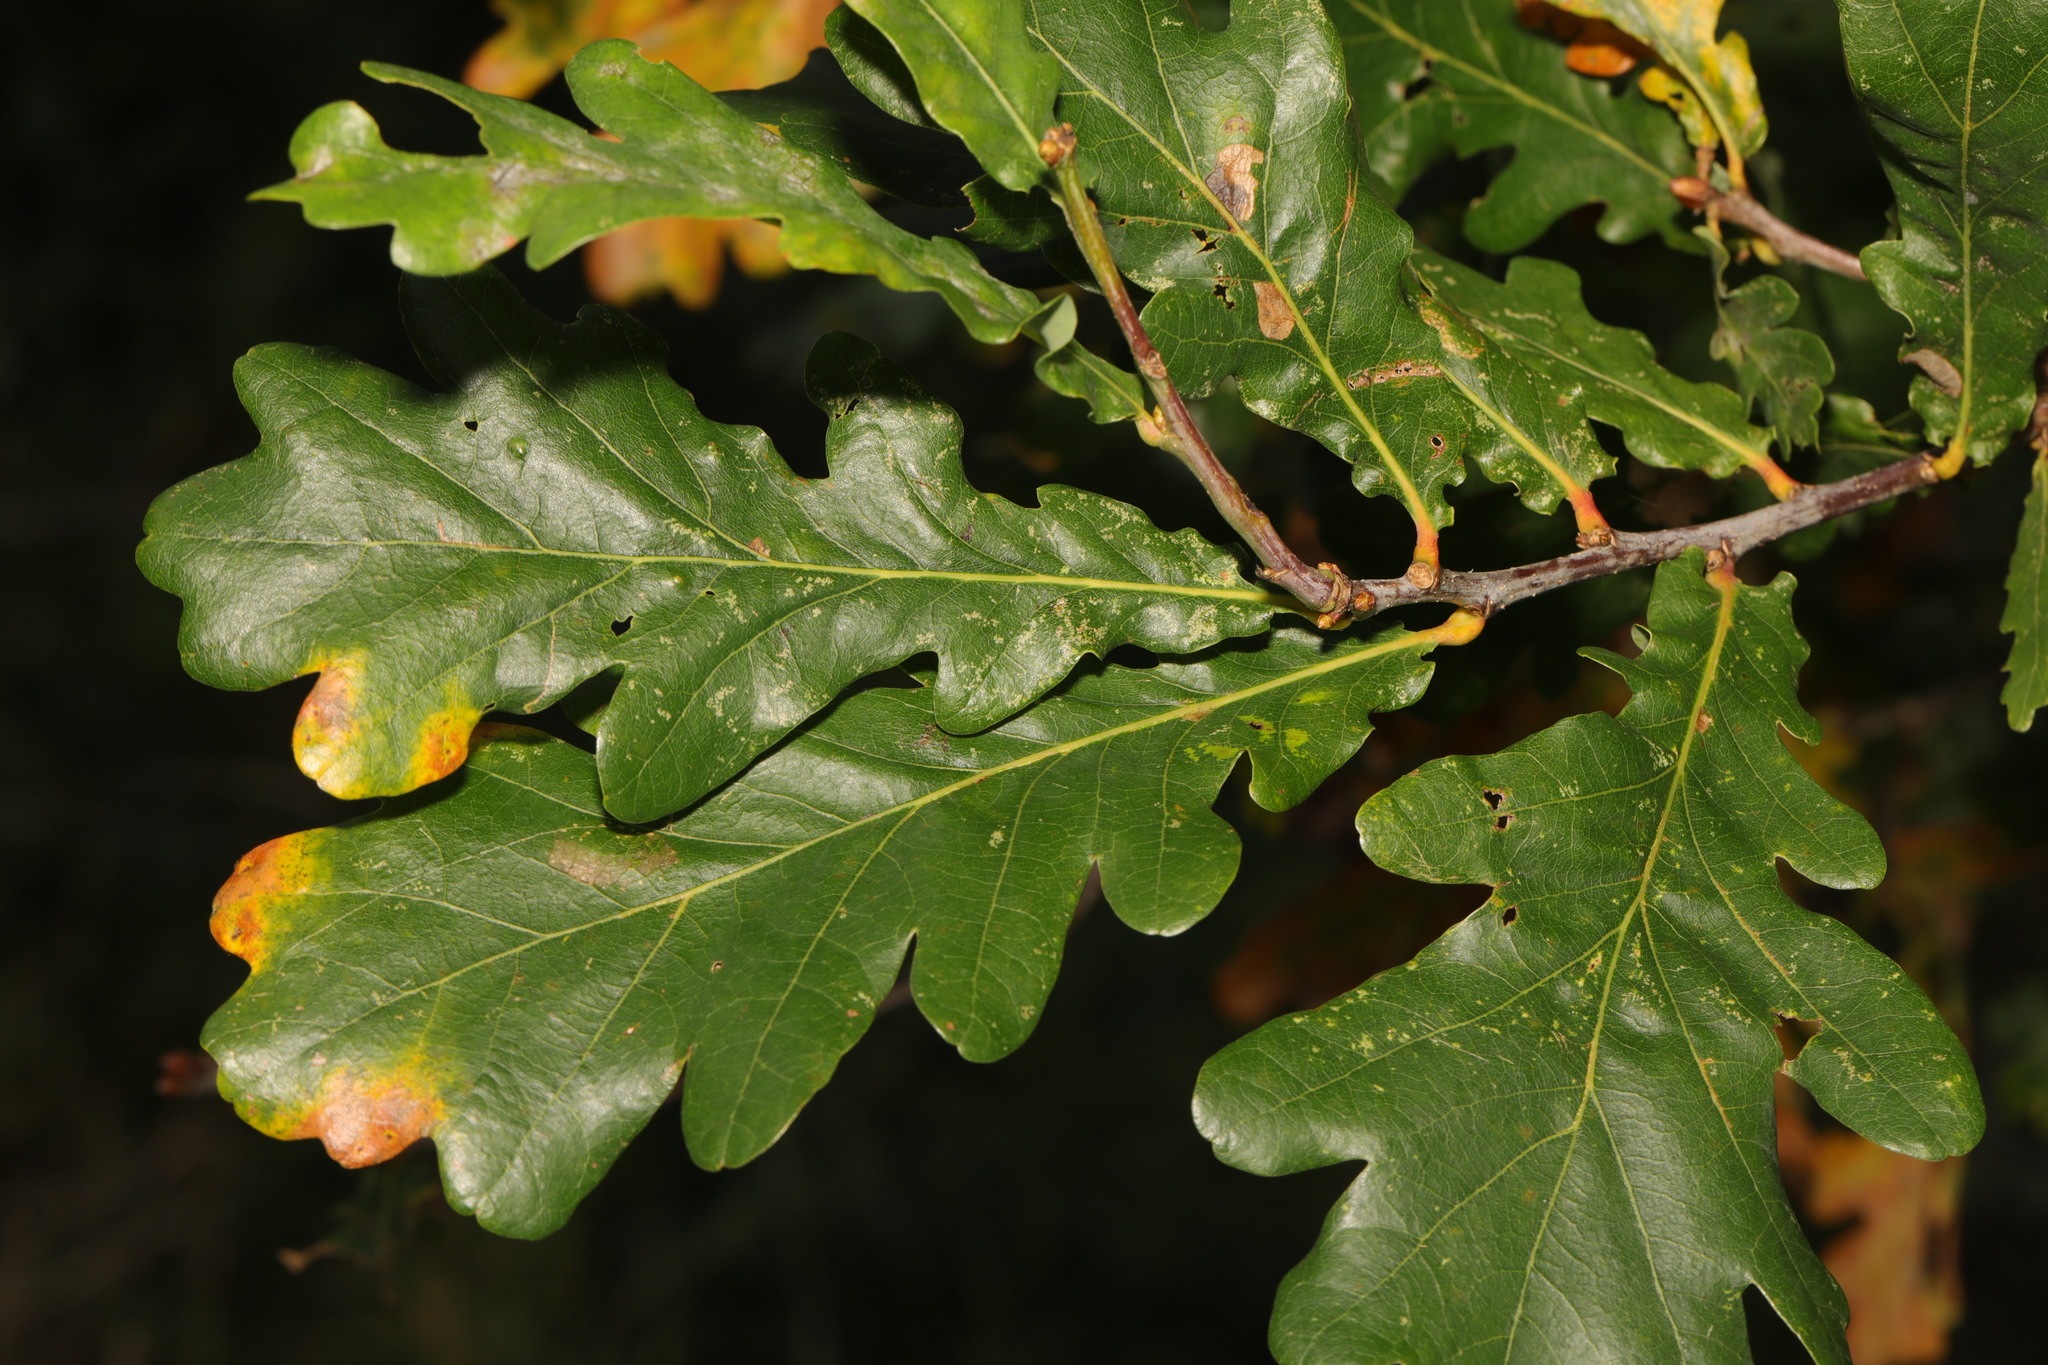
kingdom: Plantae
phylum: Tracheophyta
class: Magnoliopsida
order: Fagales
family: Fagaceae
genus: Quercus
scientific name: Quercus robur
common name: Pedunculate oak
